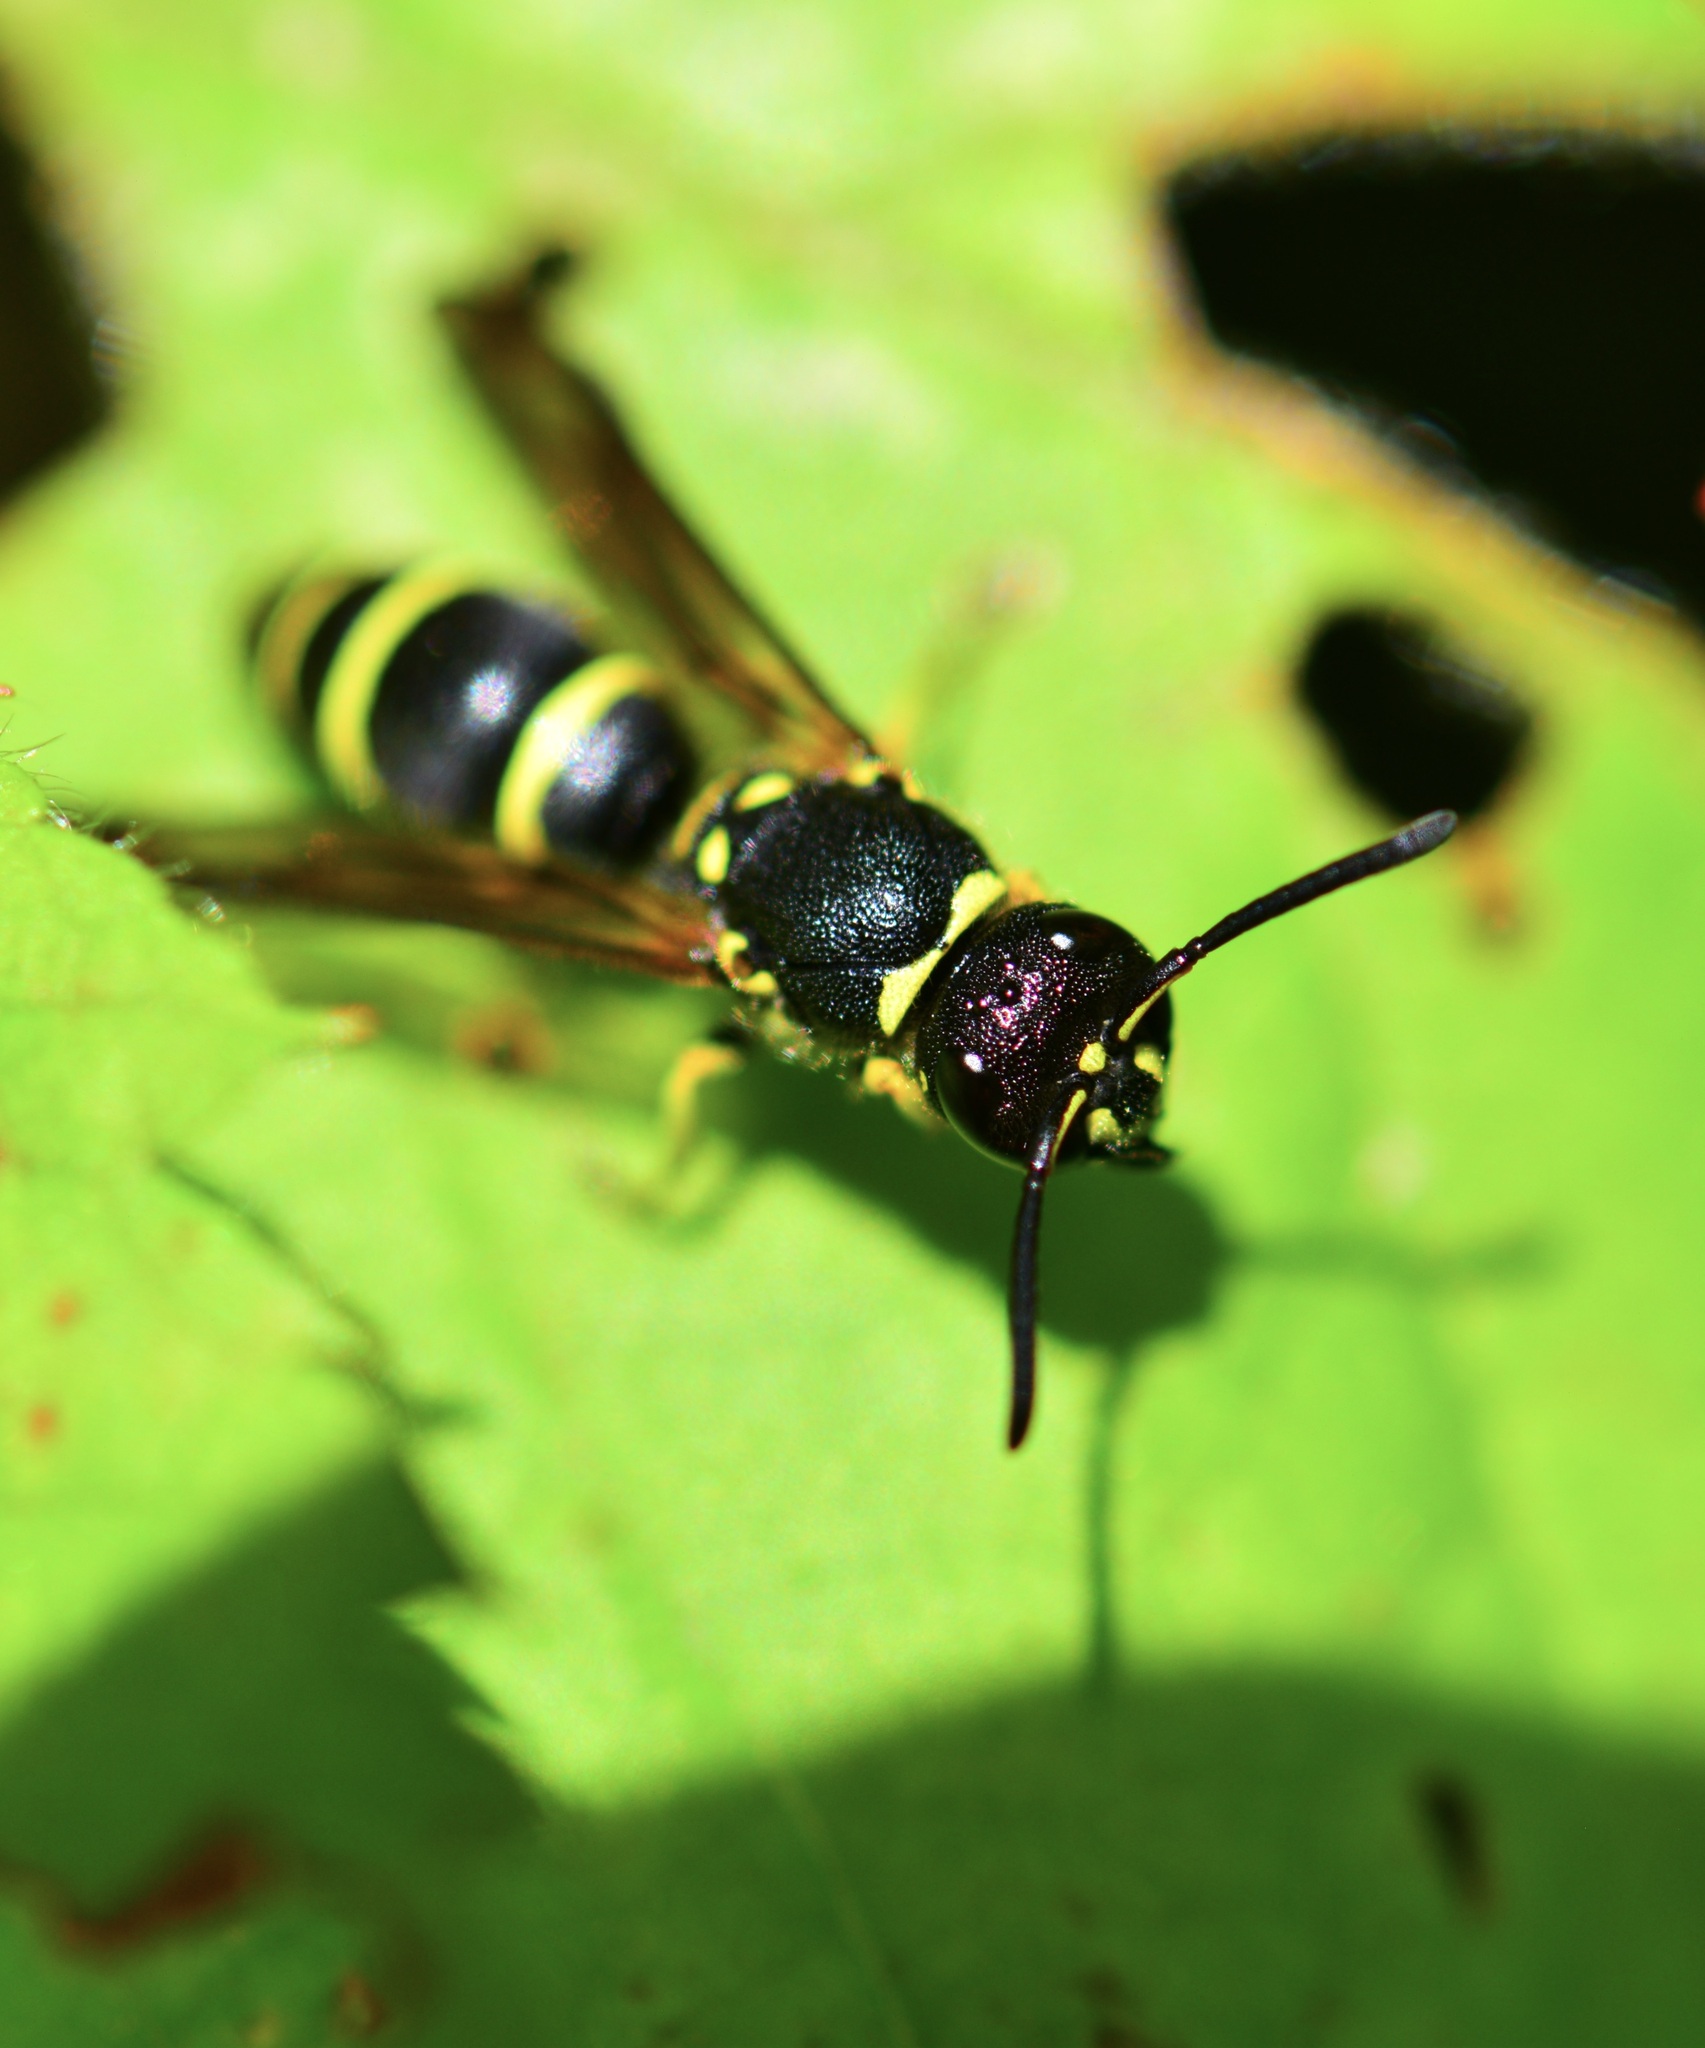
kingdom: Animalia
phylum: Arthropoda
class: Insecta
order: Hymenoptera
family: Vespidae
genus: Ancistrocerus
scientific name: Ancistrocerus adiabatus
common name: Bramble mason wasp
